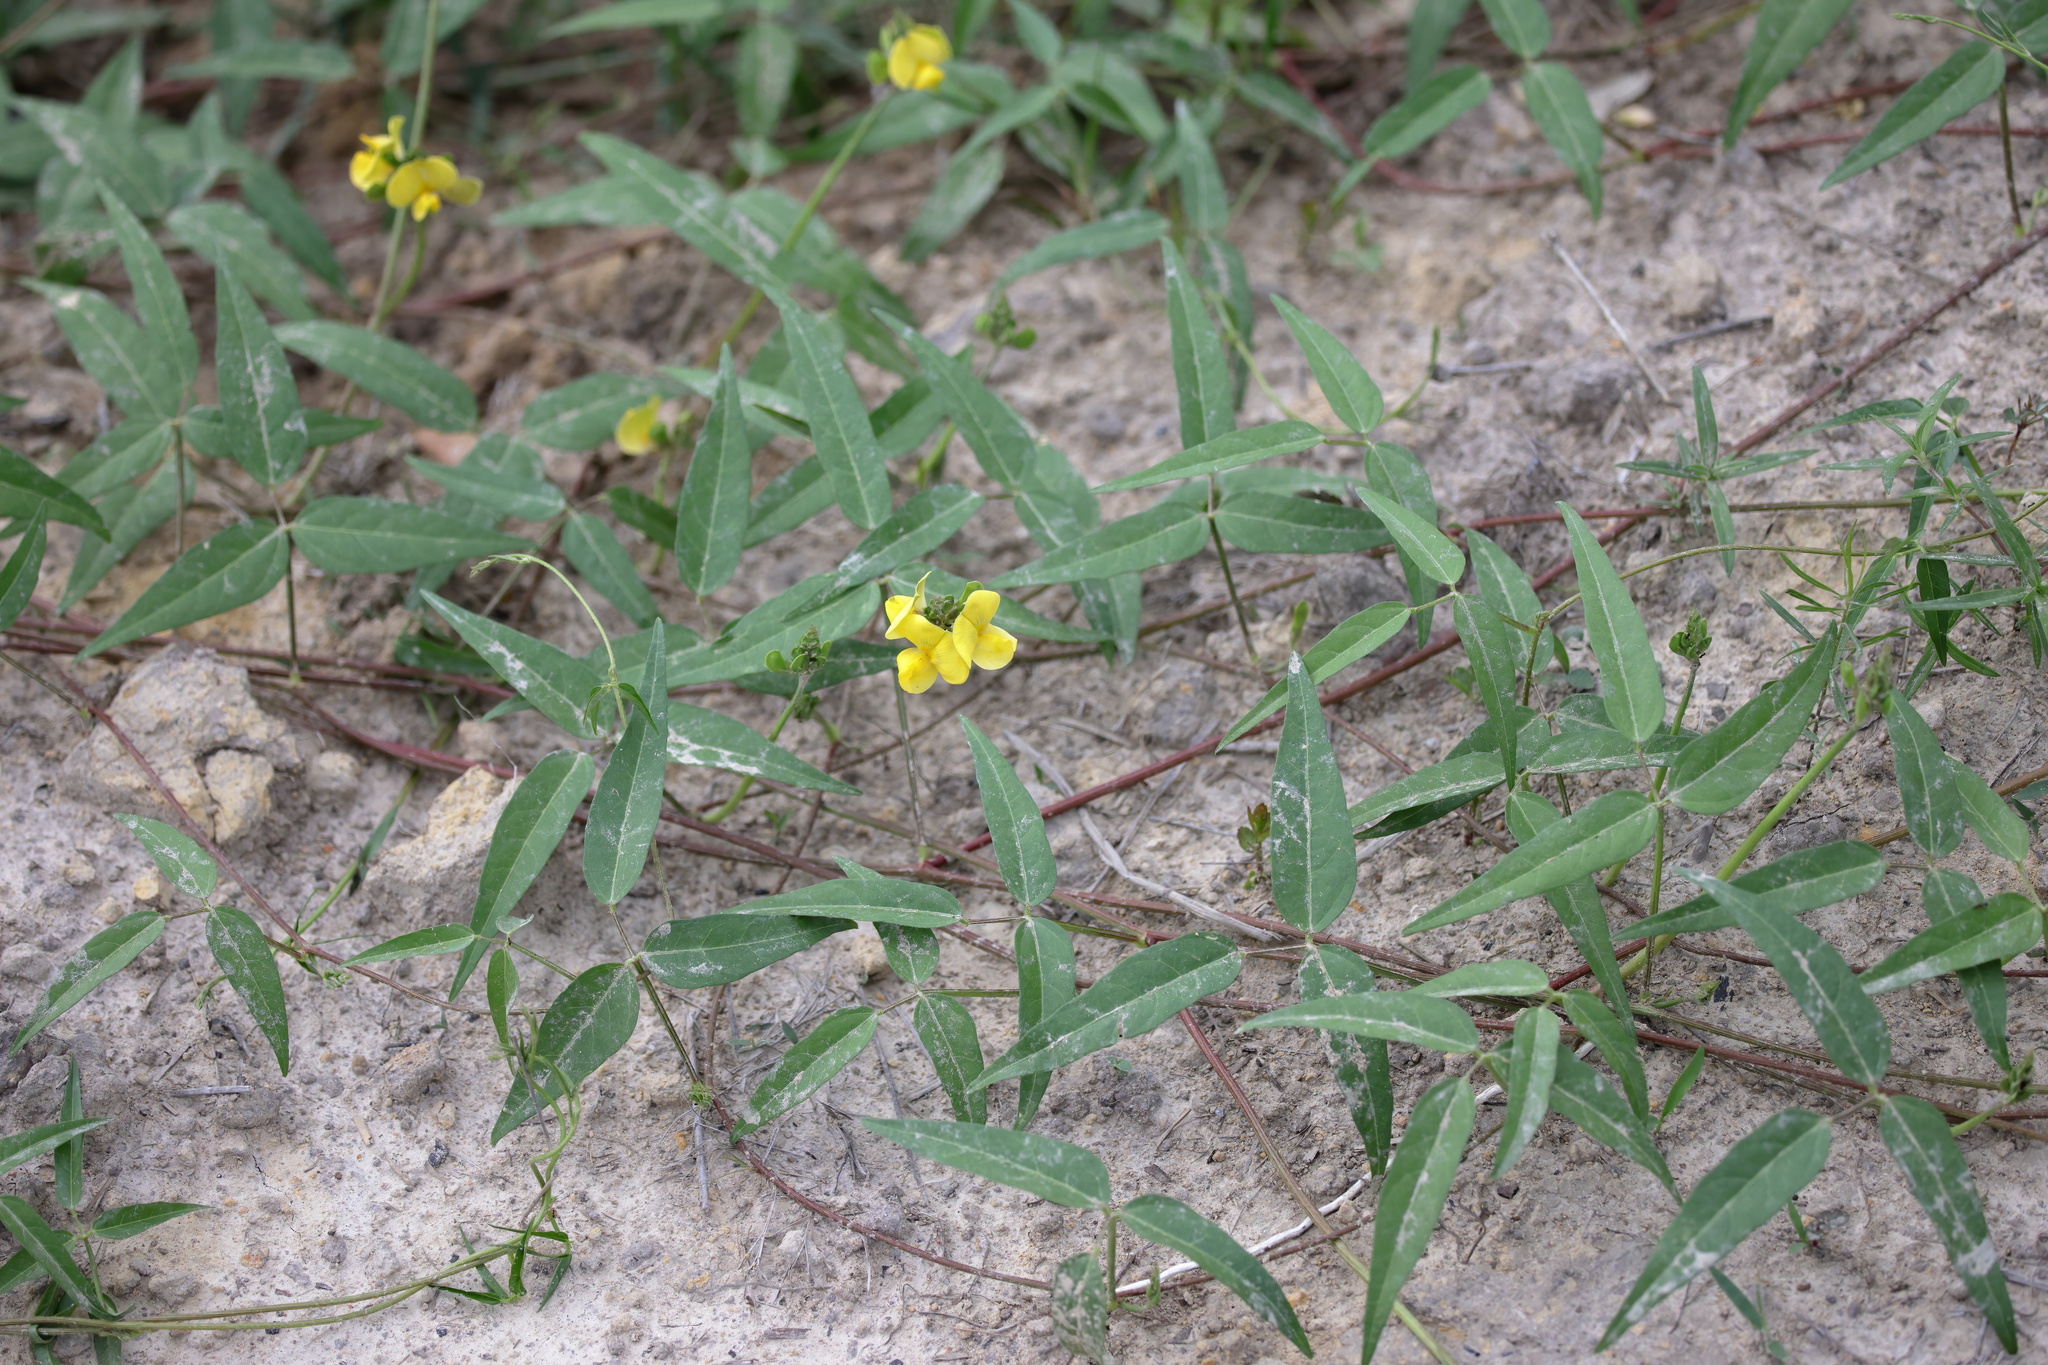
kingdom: Plantae
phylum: Tracheophyta
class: Magnoliopsida
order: Fabales
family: Fabaceae
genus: Vigna
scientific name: Vigna luteola
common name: Hairypod cowpea
